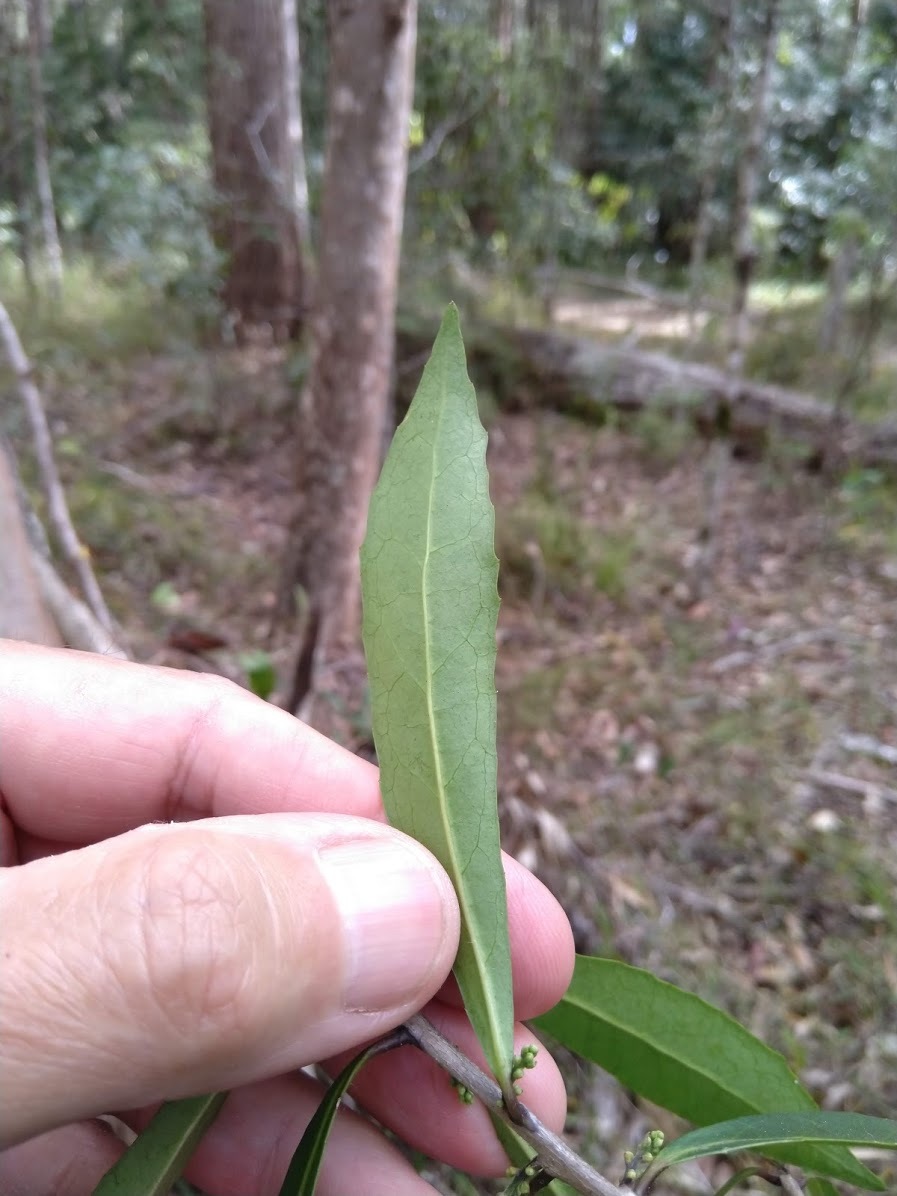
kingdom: Plantae
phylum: Tracheophyta
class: Magnoliopsida
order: Ericales
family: Symplocaceae
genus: Symplocos
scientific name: Symplocos harroldii
